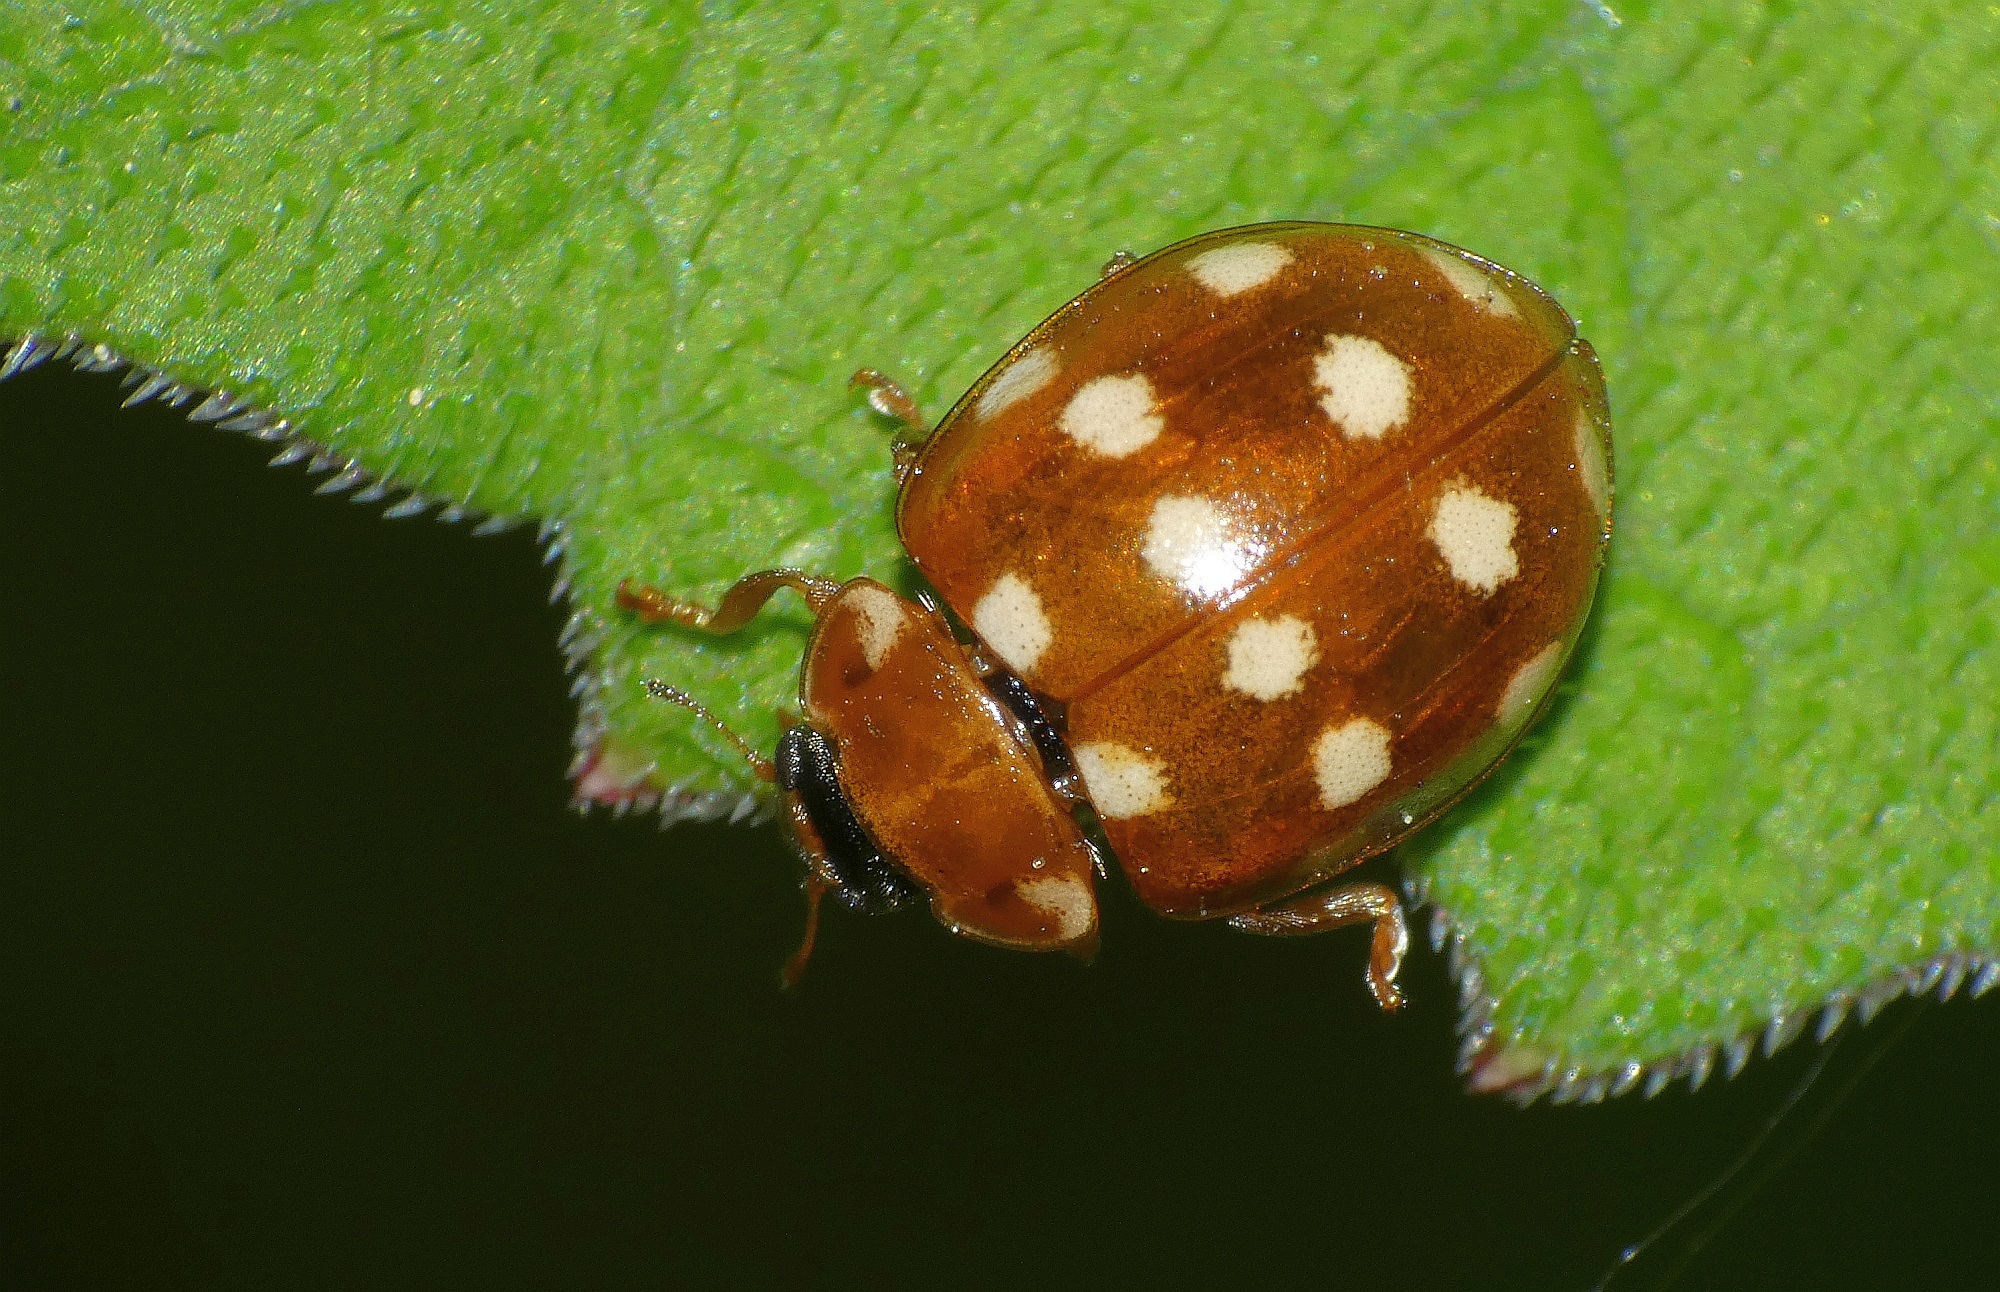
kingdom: Animalia
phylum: Arthropoda
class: Insecta
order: Coleoptera
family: Coccinellidae
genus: Calvia
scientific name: Calvia quatuordecimguttata
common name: Cream-spot ladybird
